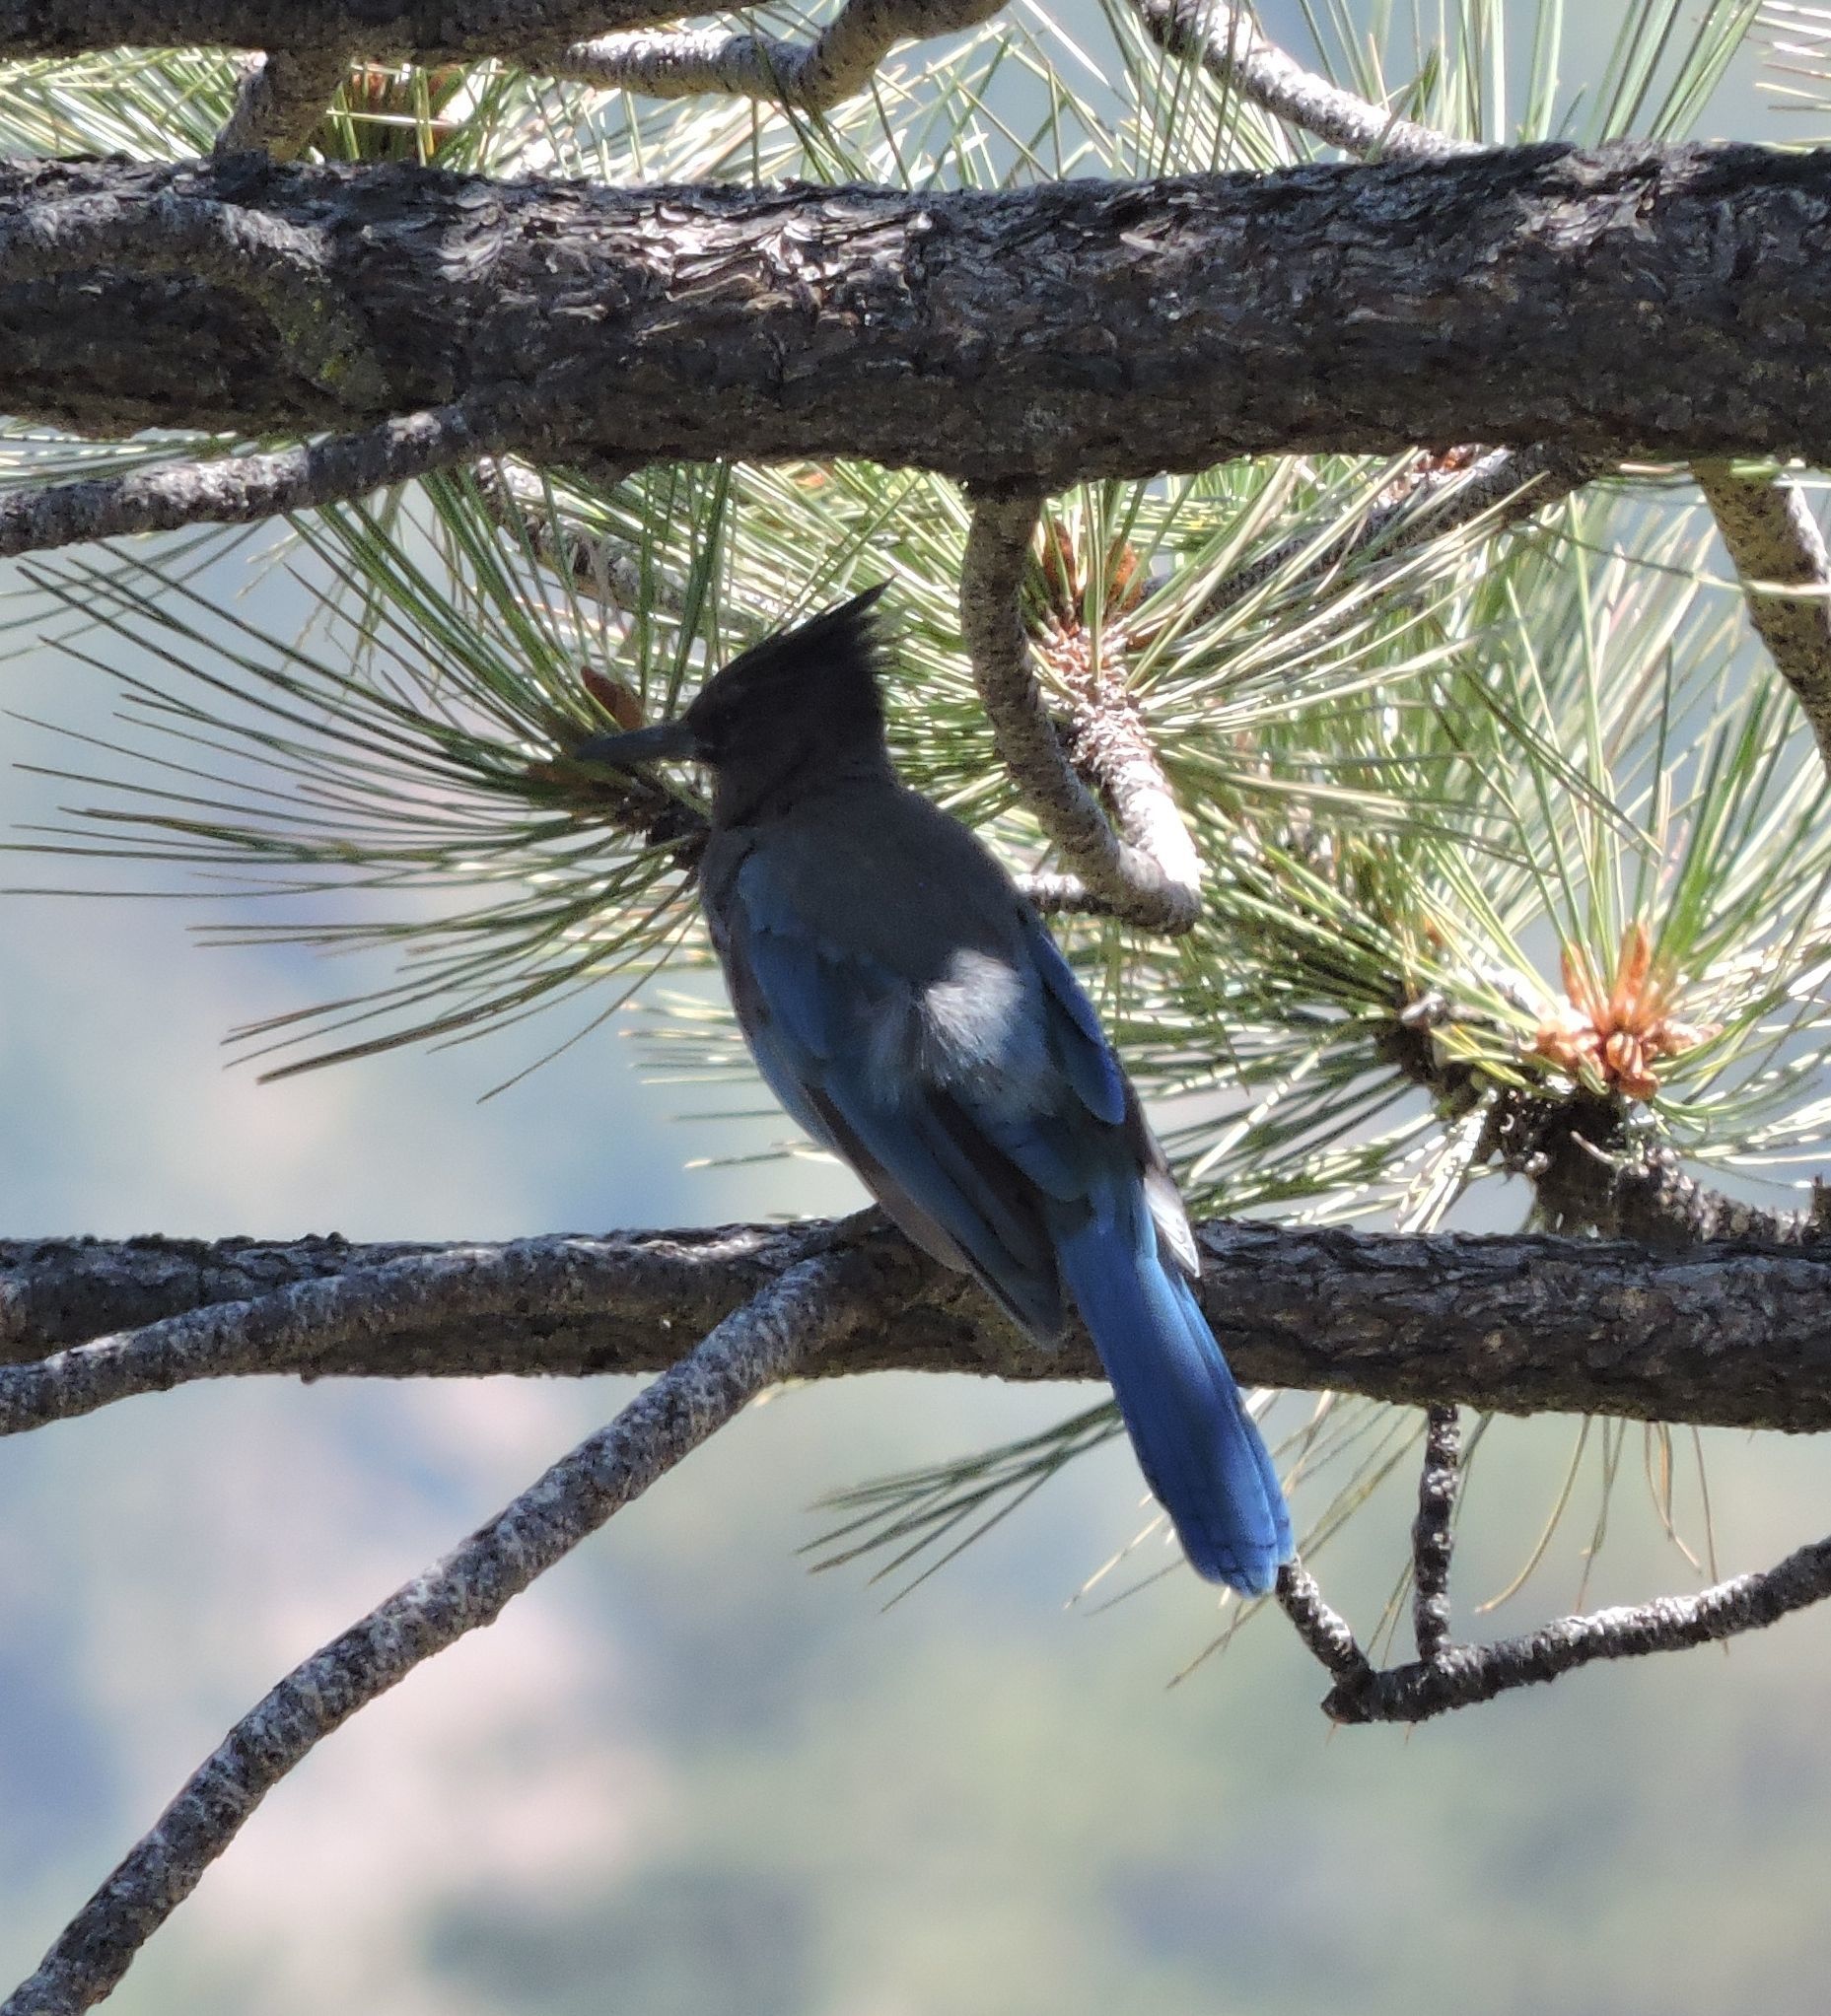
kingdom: Animalia
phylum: Chordata
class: Aves
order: Passeriformes
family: Corvidae
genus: Cyanocitta
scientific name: Cyanocitta stelleri
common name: Steller's jay
